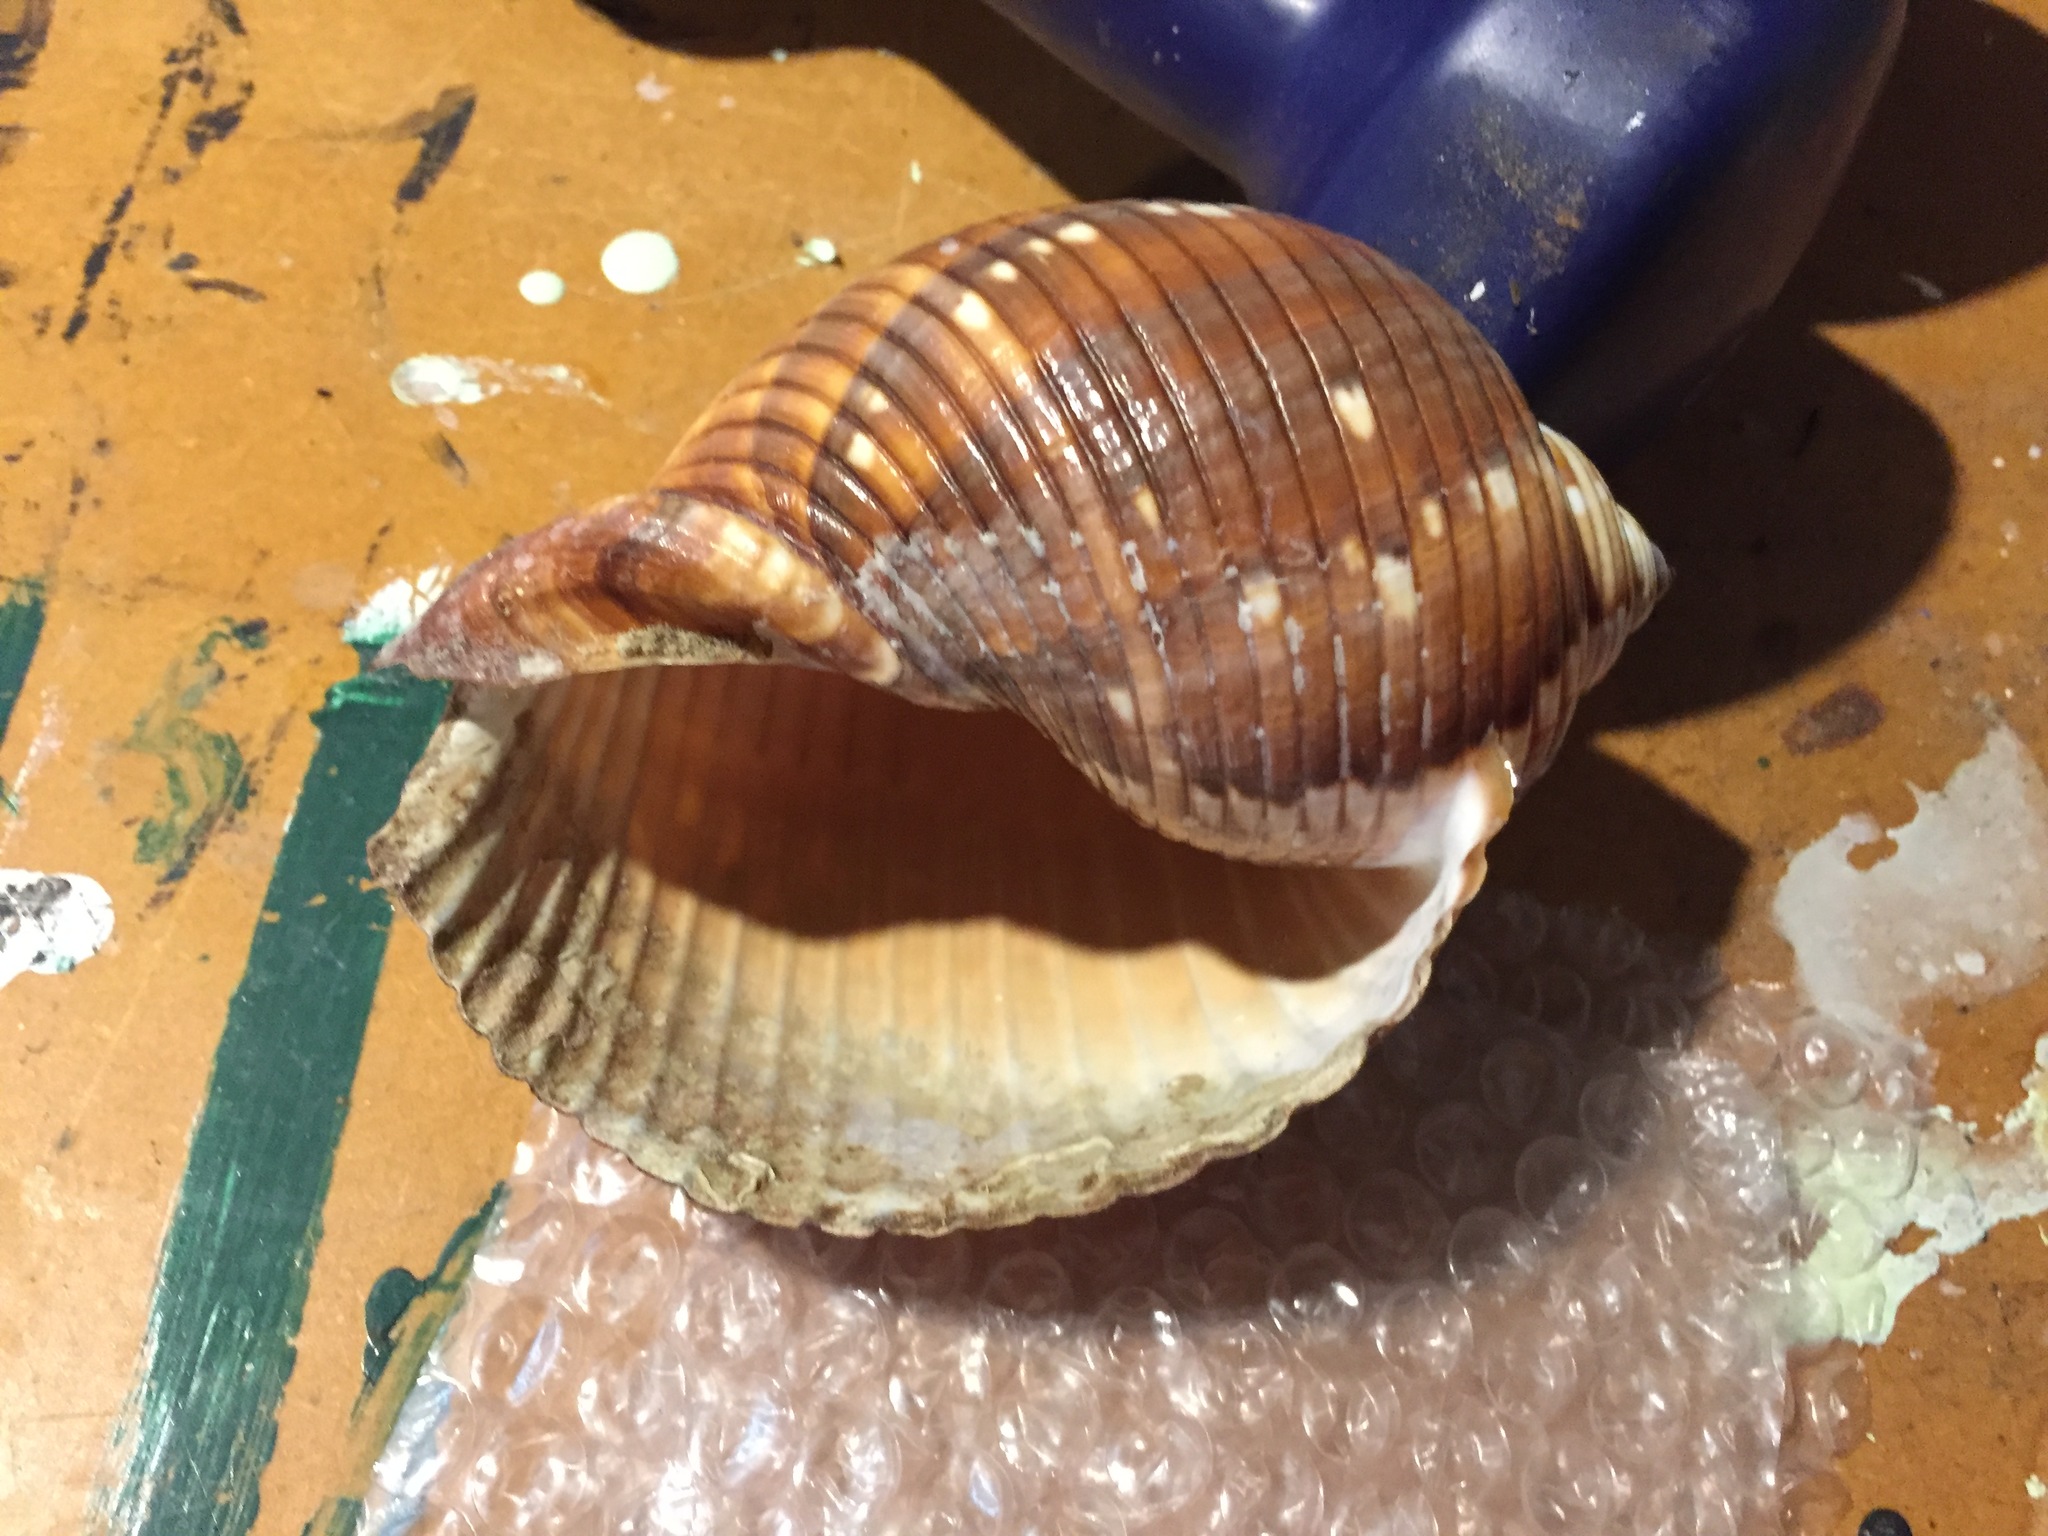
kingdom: Animalia
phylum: Mollusca
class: Gastropoda
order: Littorinimorpha
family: Tonnidae
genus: Tonna
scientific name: Tonna poppei
